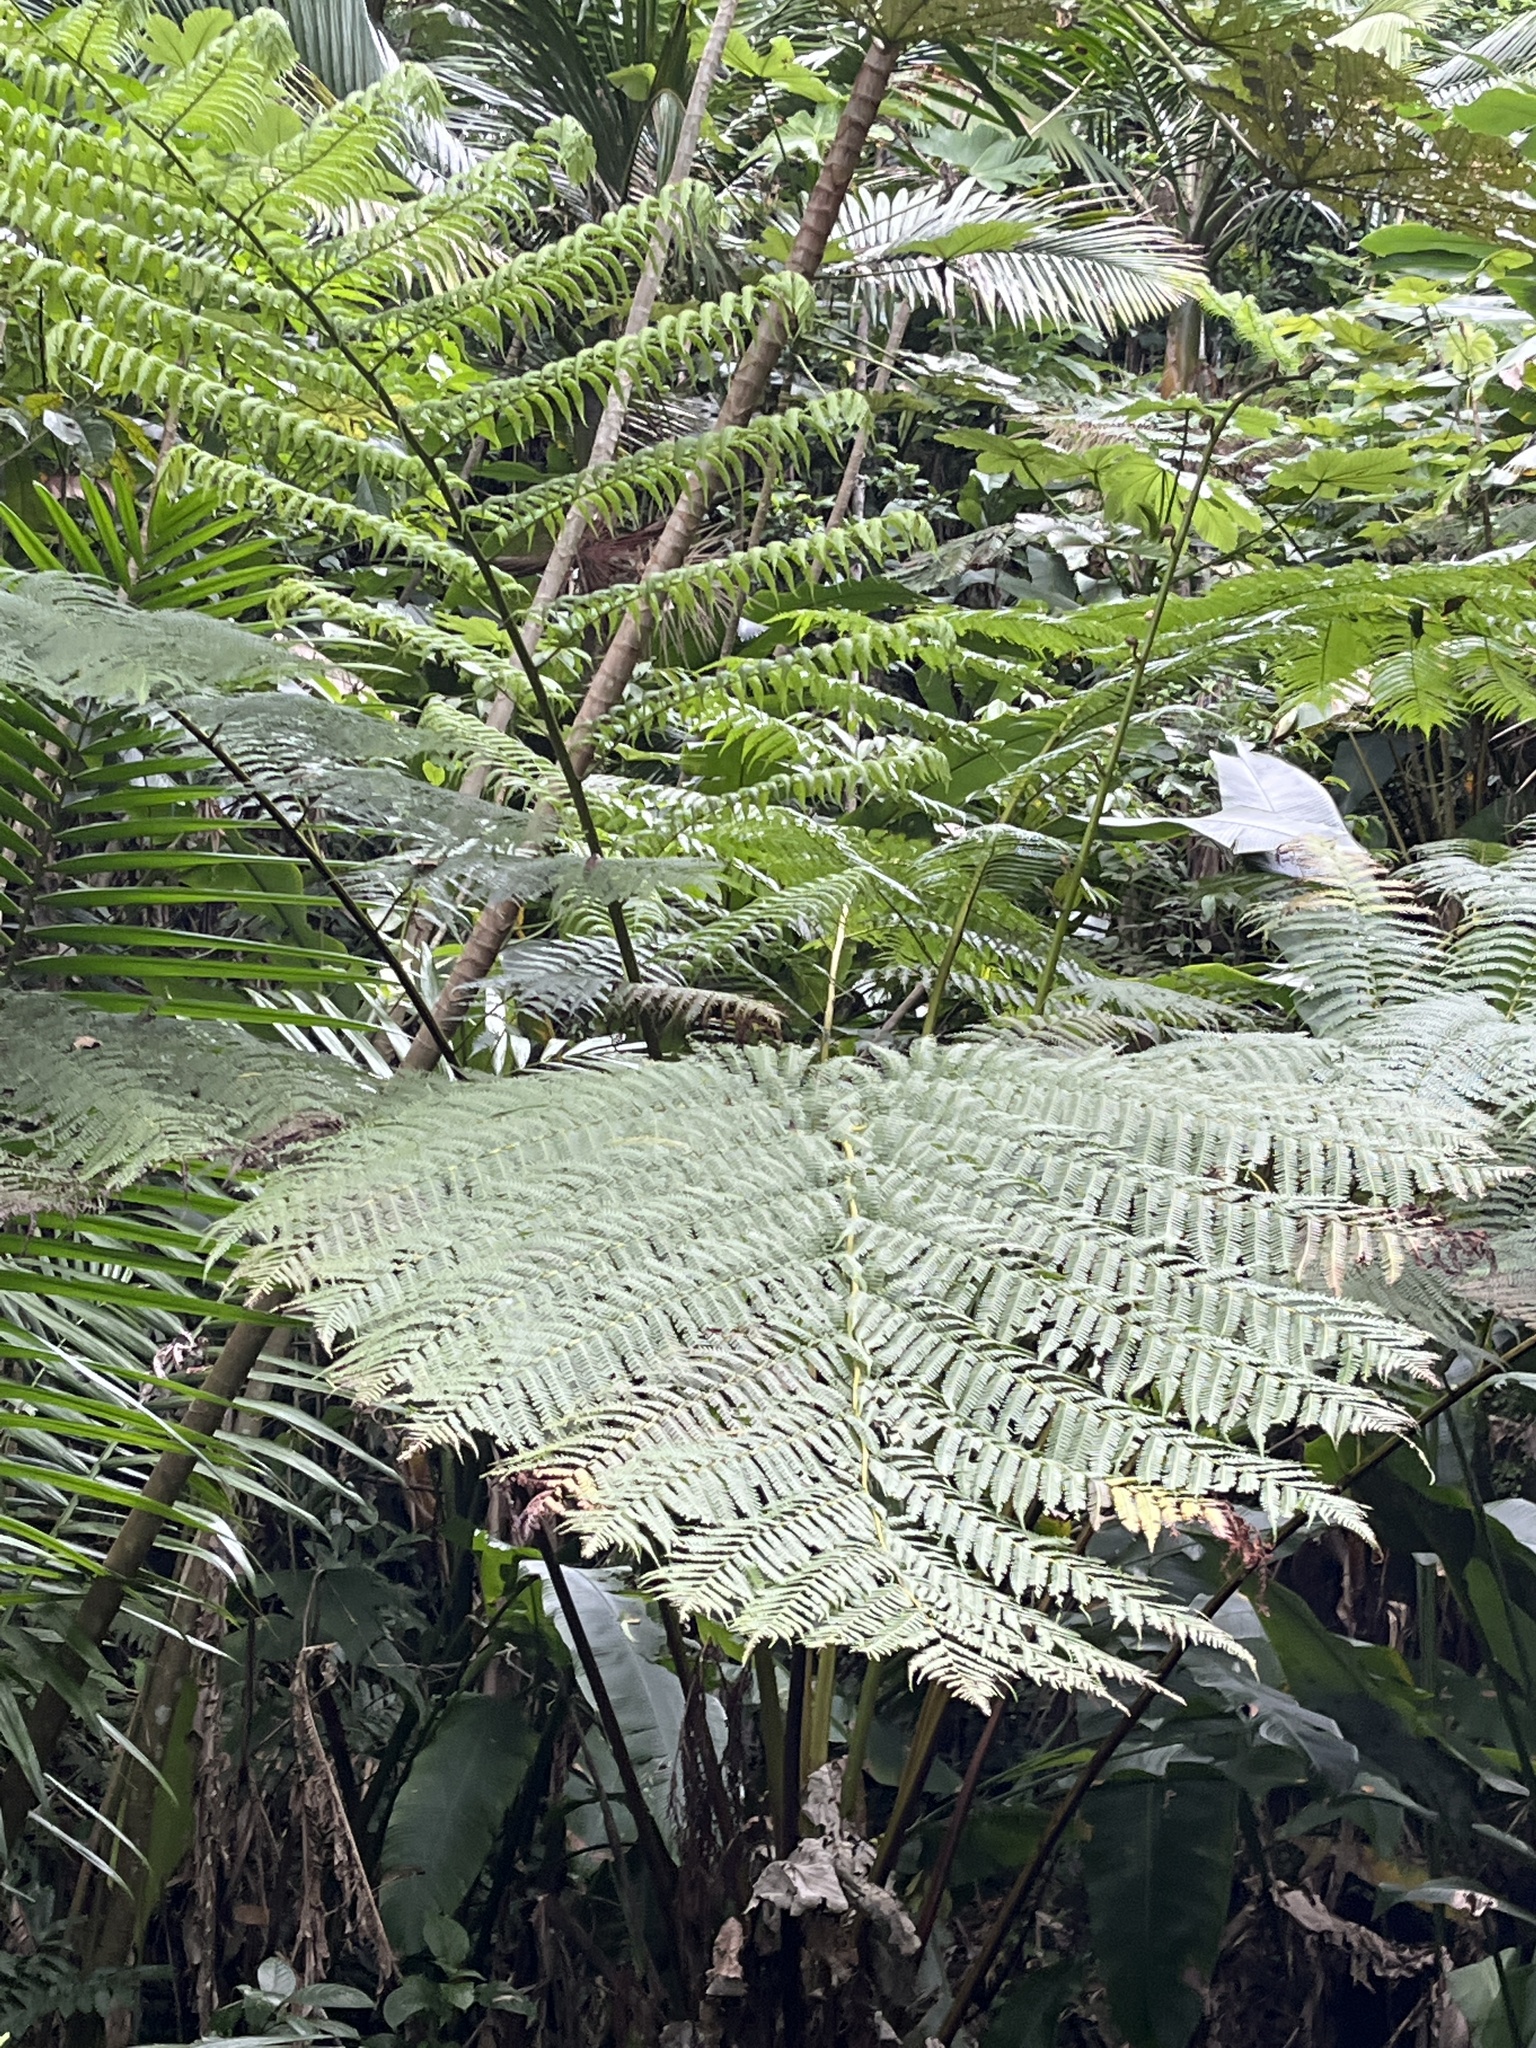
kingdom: Plantae
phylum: Tracheophyta
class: Polypodiopsida
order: Cyatheales
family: Cyatheaceae
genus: Cyathea
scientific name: Cyathea arborea
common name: West indian treefern
